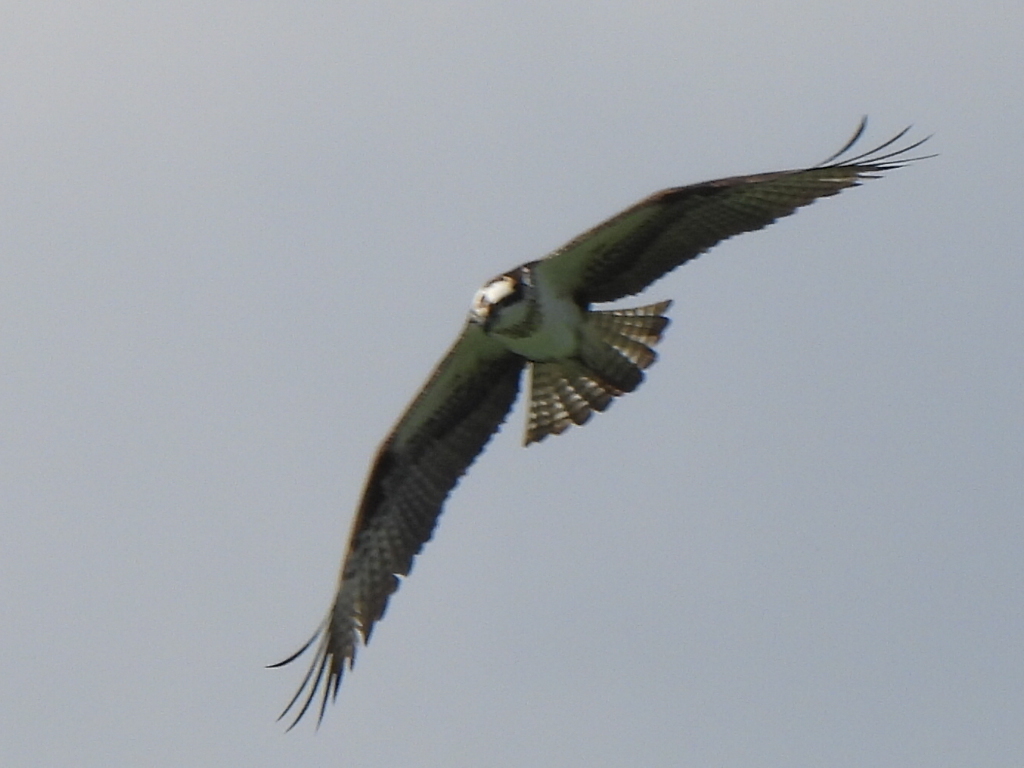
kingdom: Animalia
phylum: Chordata
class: Aves
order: Accipitriformes
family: Pandionidae
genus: Pandion
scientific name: Pandion haliaetus
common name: Osprey
